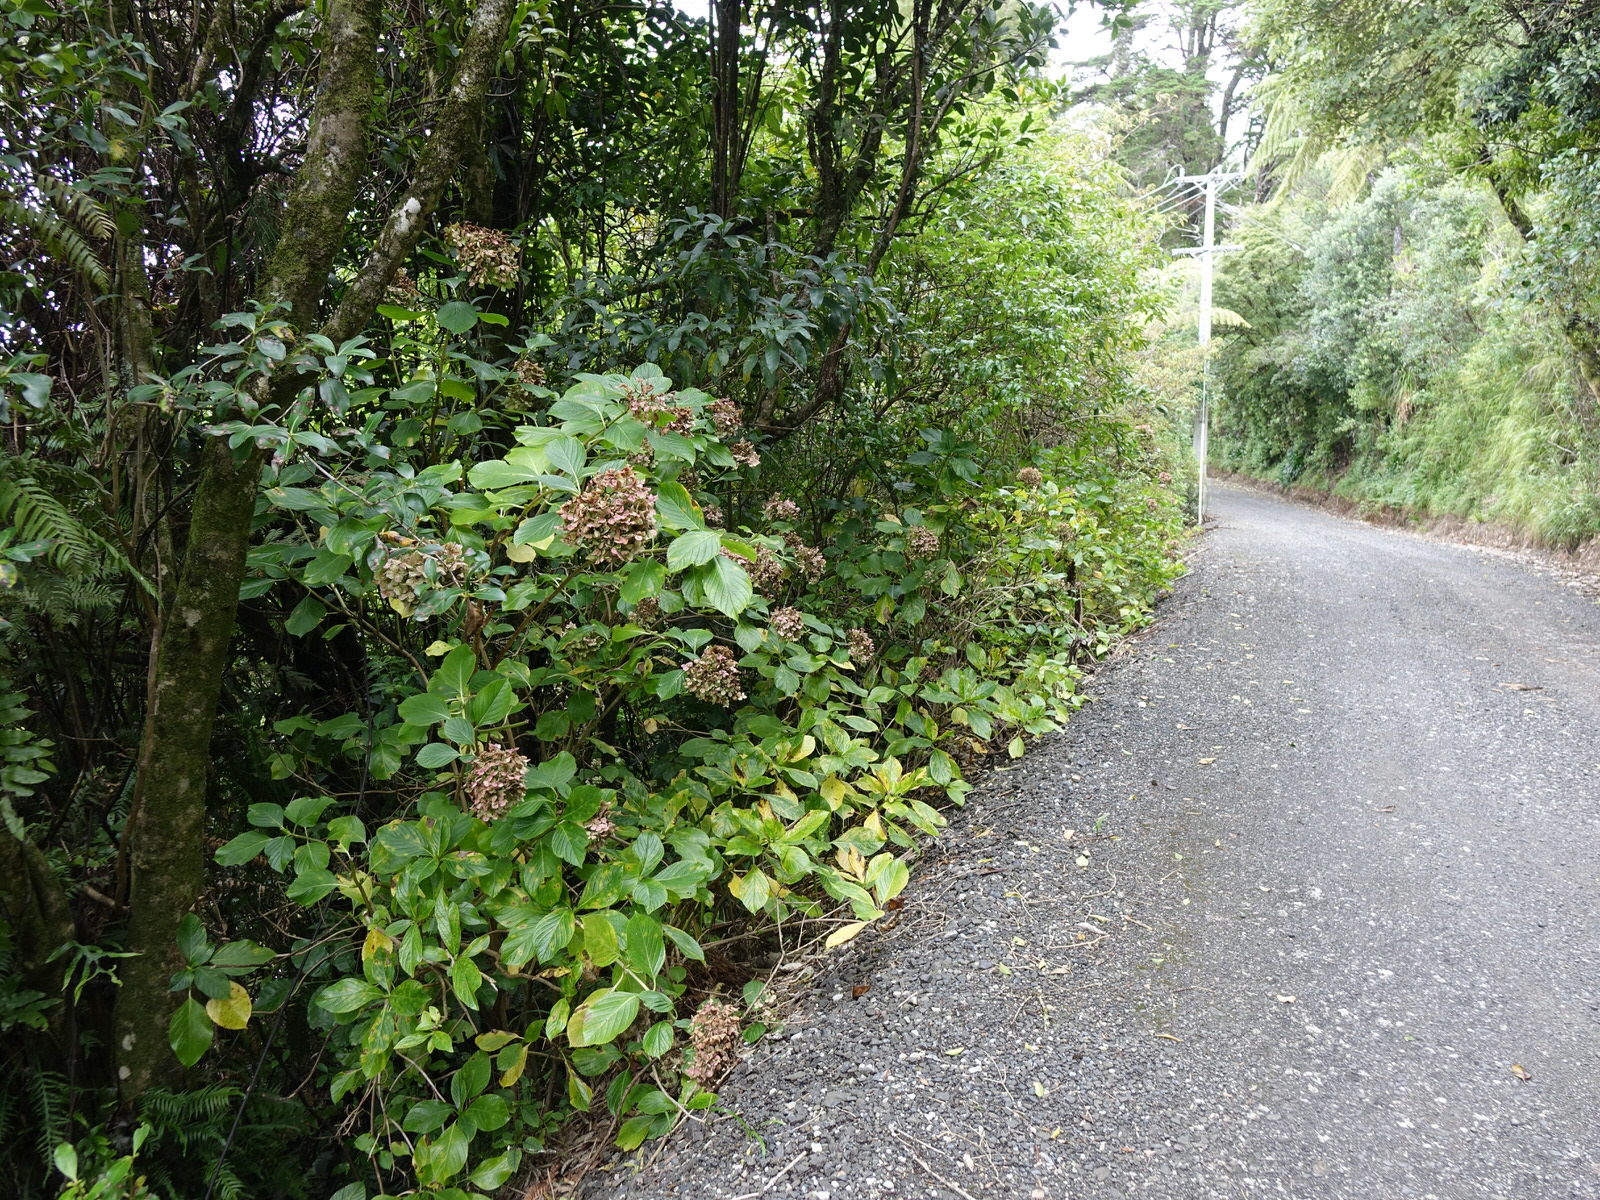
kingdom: Plantae
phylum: Tracheophyta
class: Magnoliopsida
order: Cornales
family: Hydrangeaceae
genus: Hydrangea
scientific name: Hydrangea macrophylla
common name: Hydrangea
